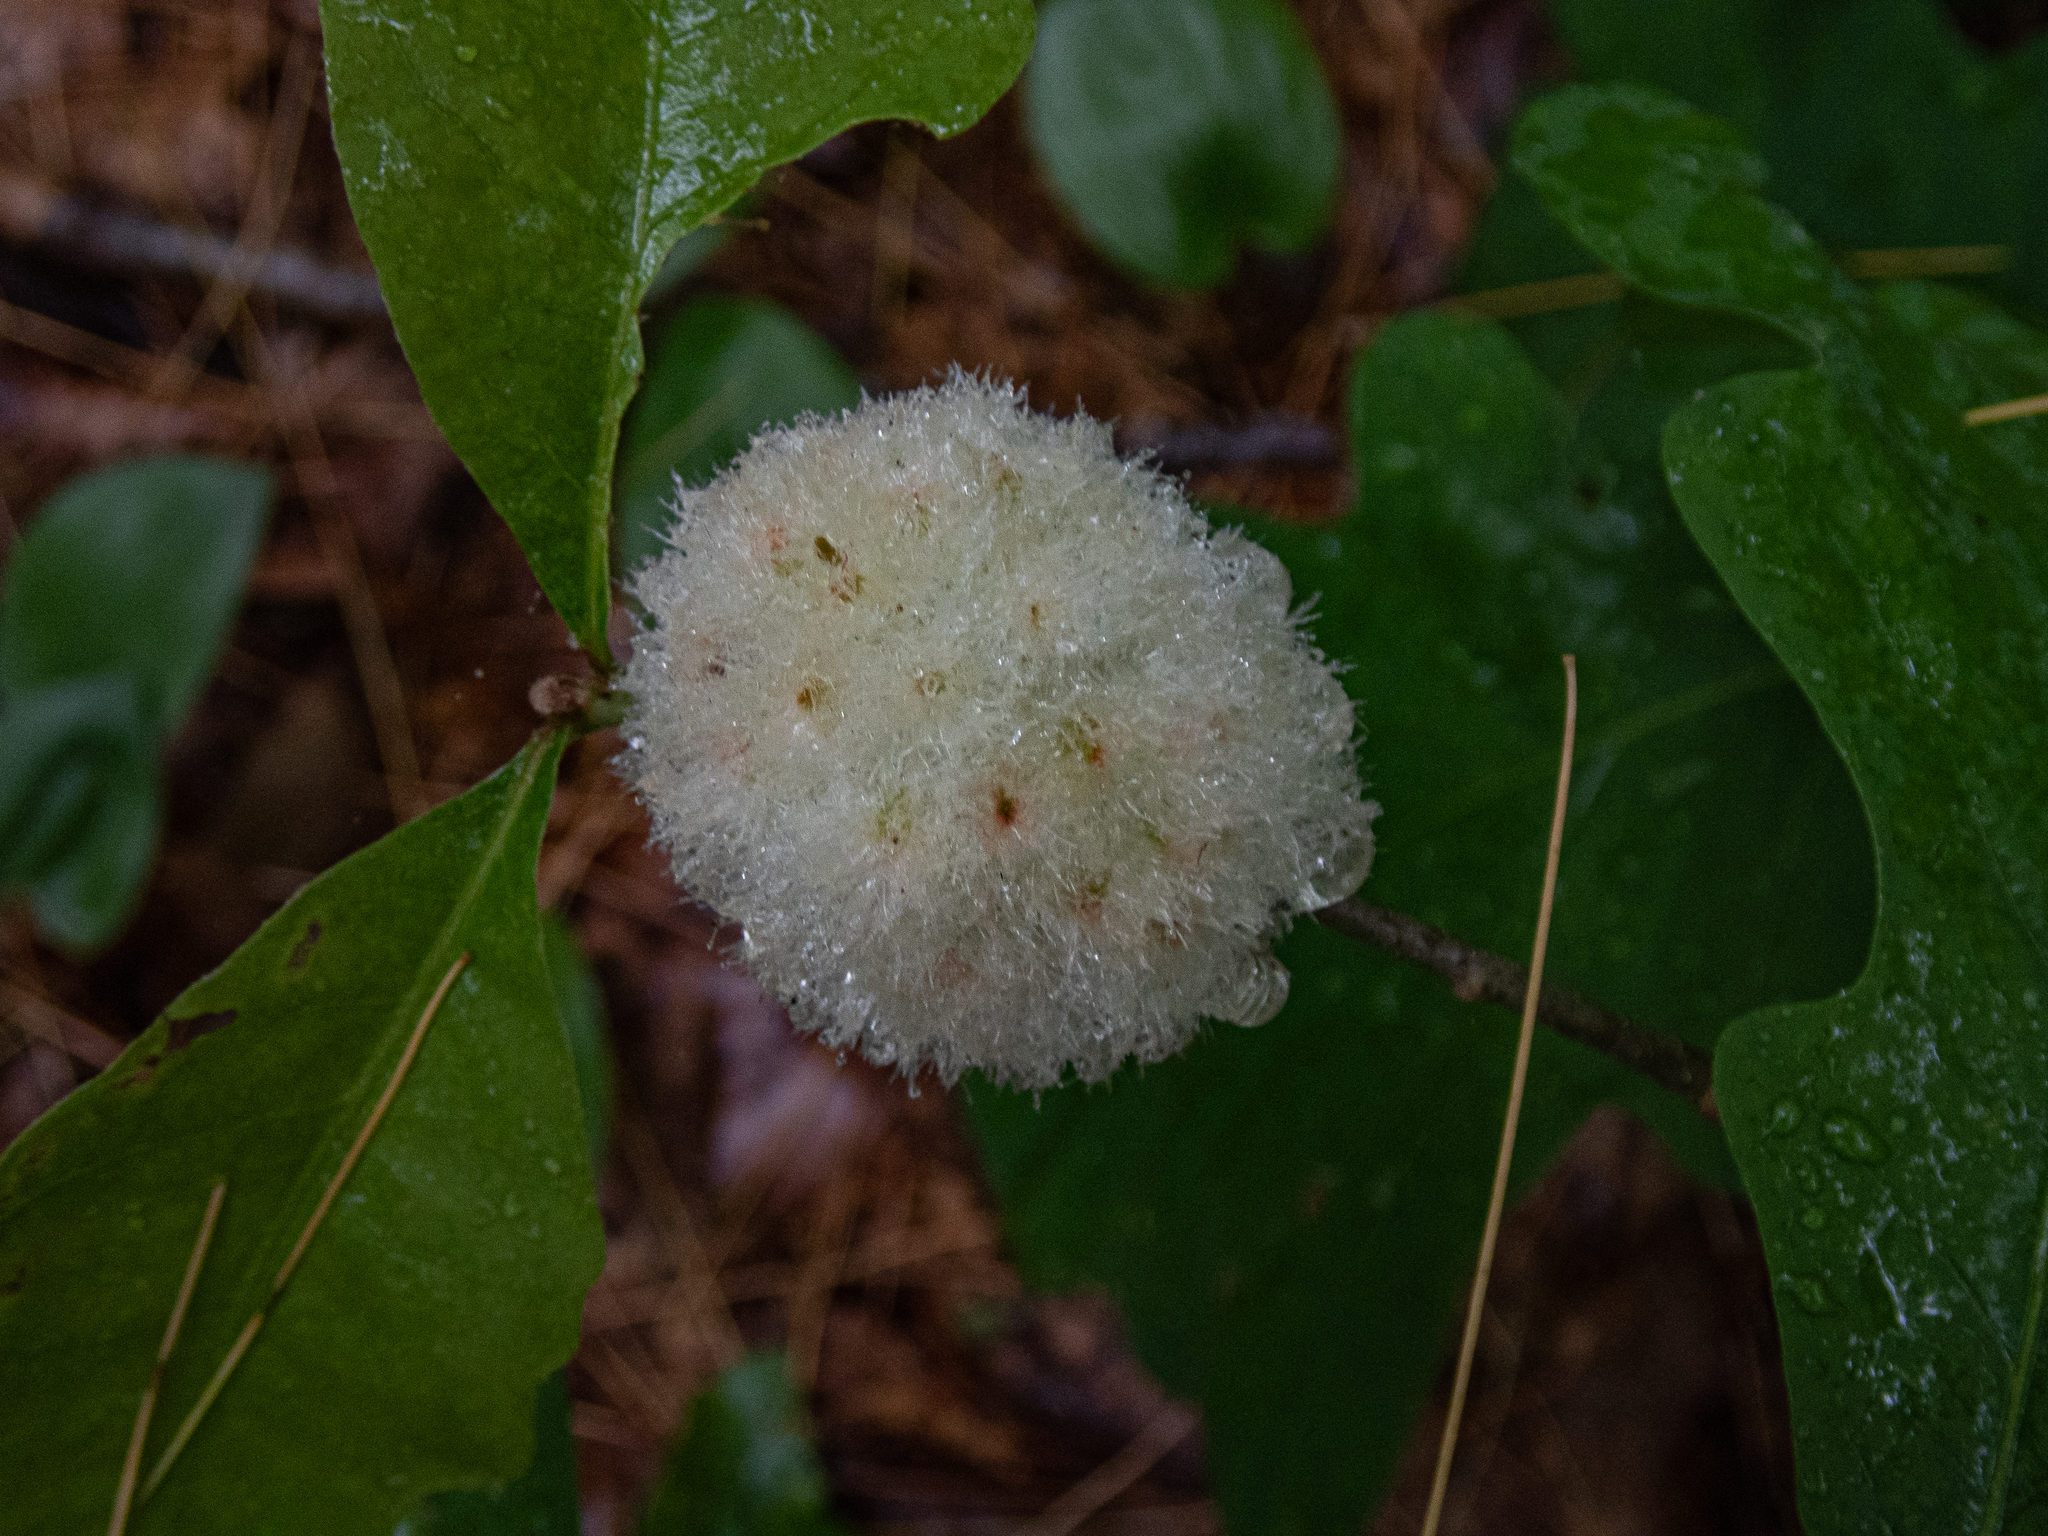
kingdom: Animalia
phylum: Arthropoda
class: Insecta
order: Hymenoptera
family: Cynipidae
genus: Callirhytis
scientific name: Callirhytis
